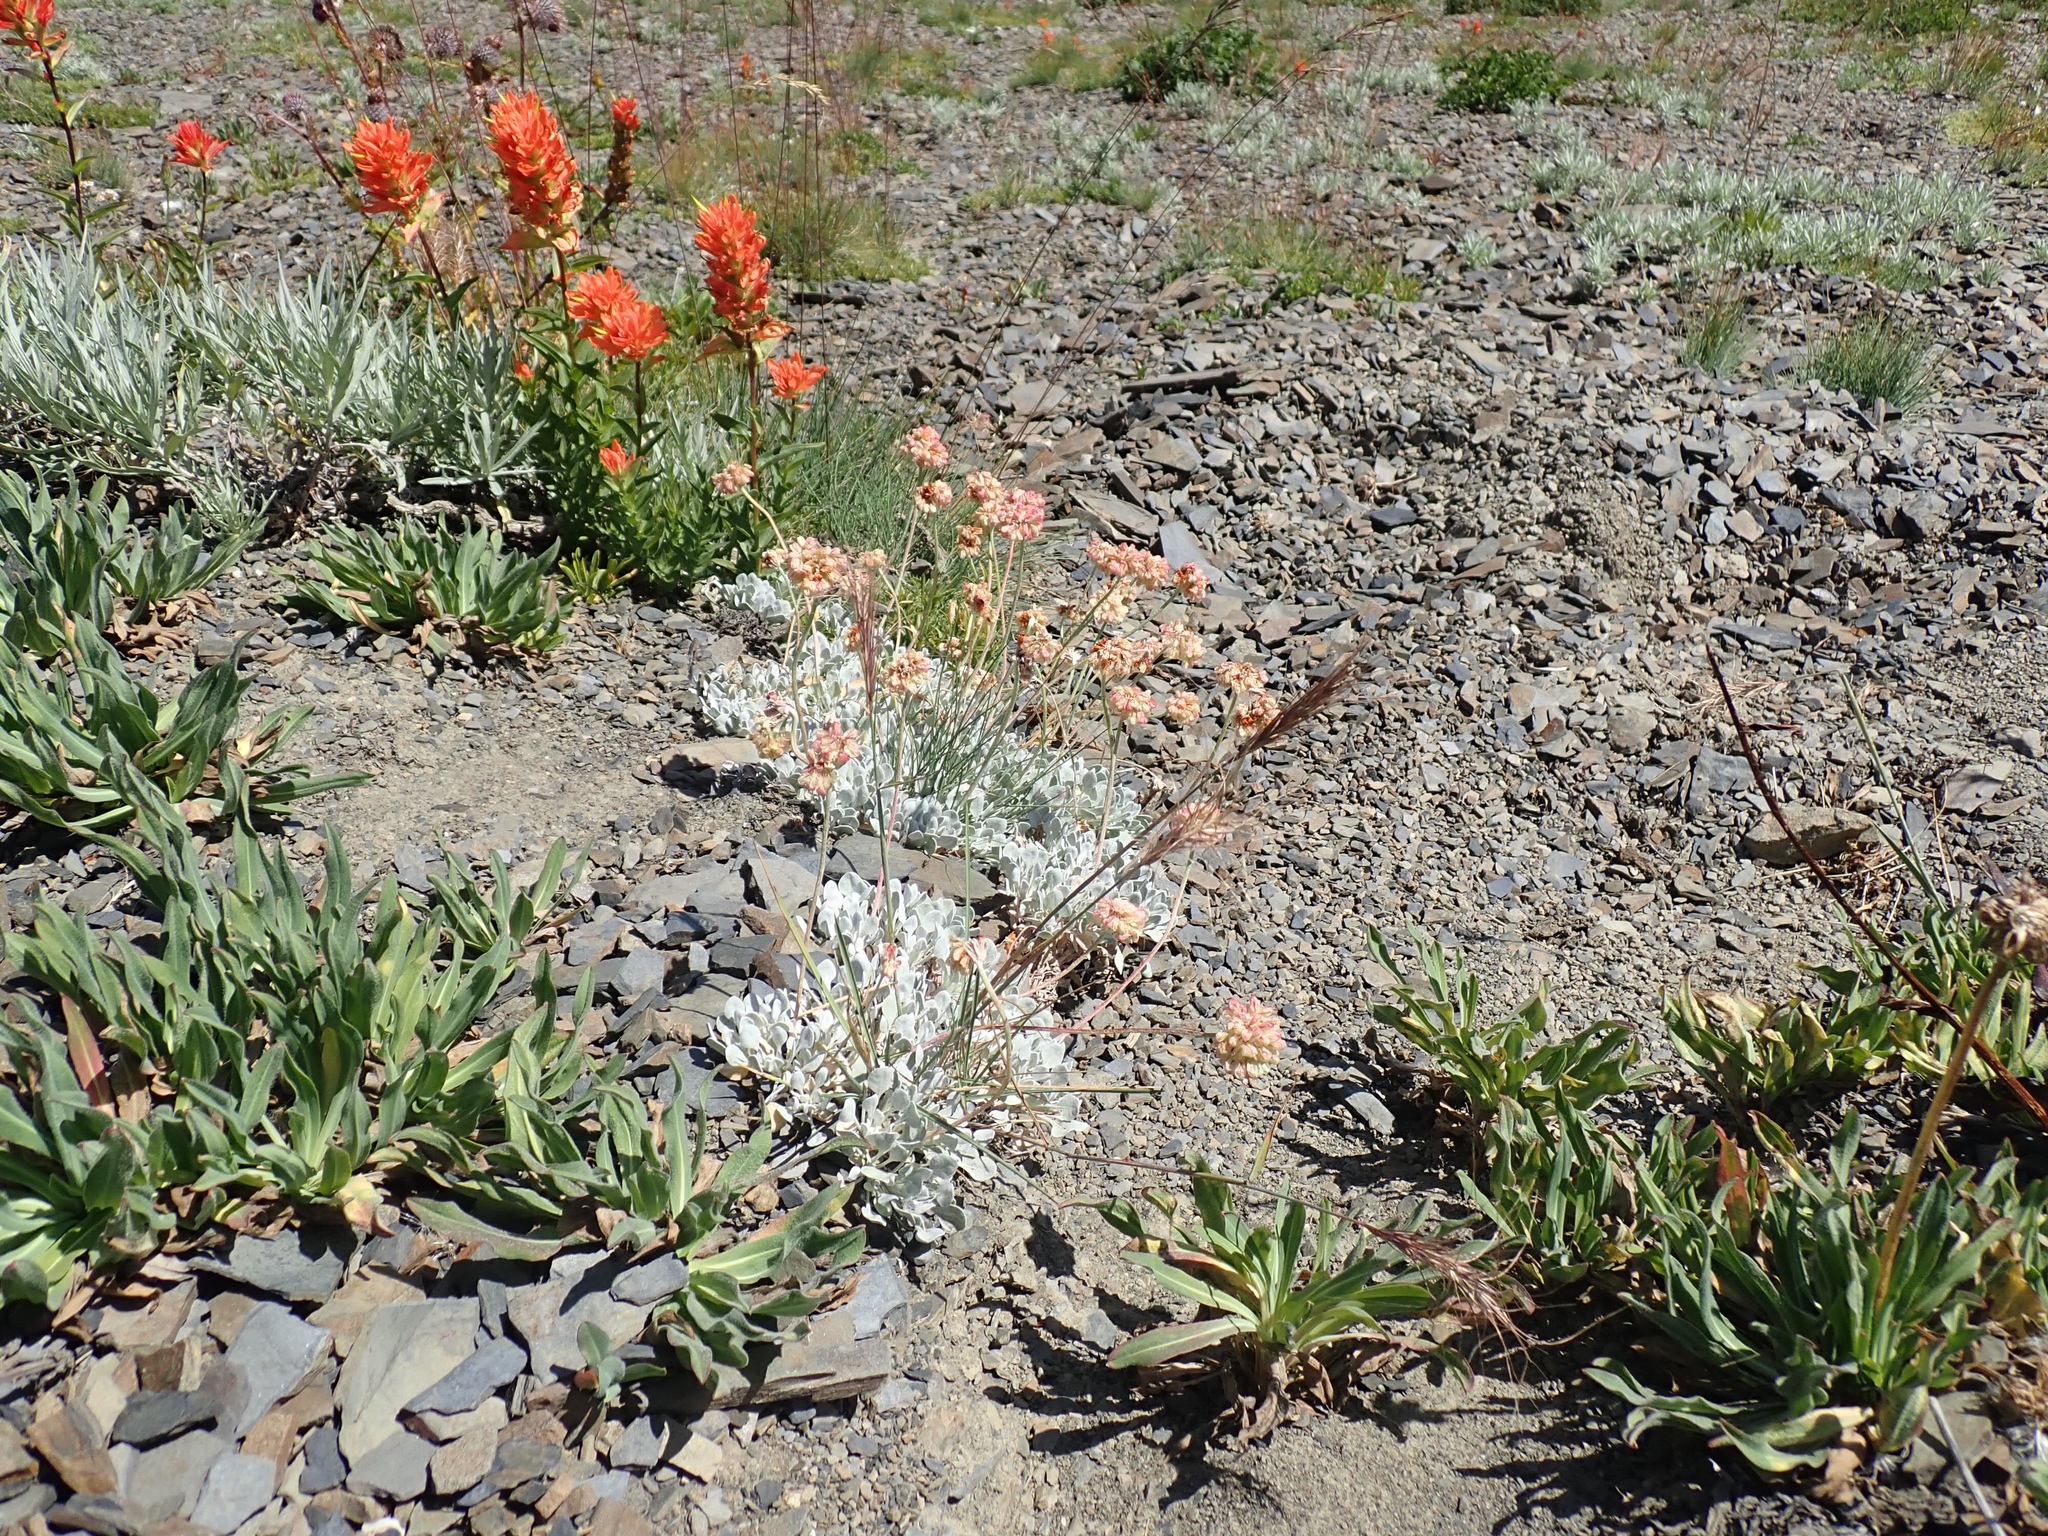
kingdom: Plantae
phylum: Tracheophyta
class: Magnoliopsida
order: Caryophyllales
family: Polygonaceae
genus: Eriogonum
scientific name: Eriogonum ovalifolium
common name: Cushion buckwheat
